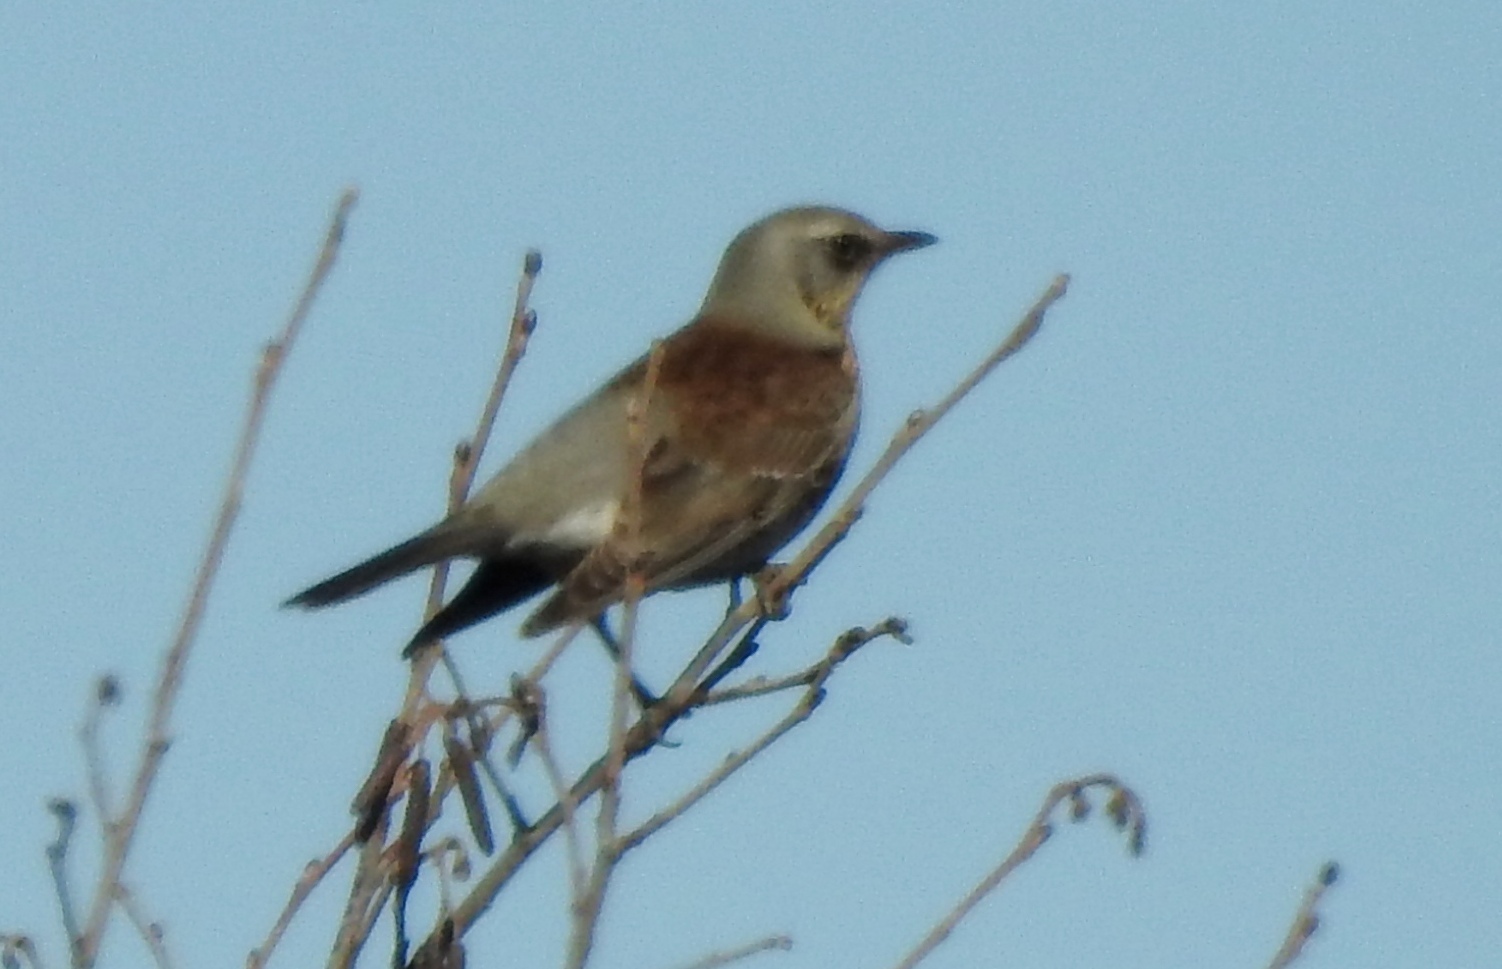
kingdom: Animalia
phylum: Chordata
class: Aves
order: Passeriformes
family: Turdidae
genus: Turdus
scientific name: Turdus pilaris
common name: Fieldfare
